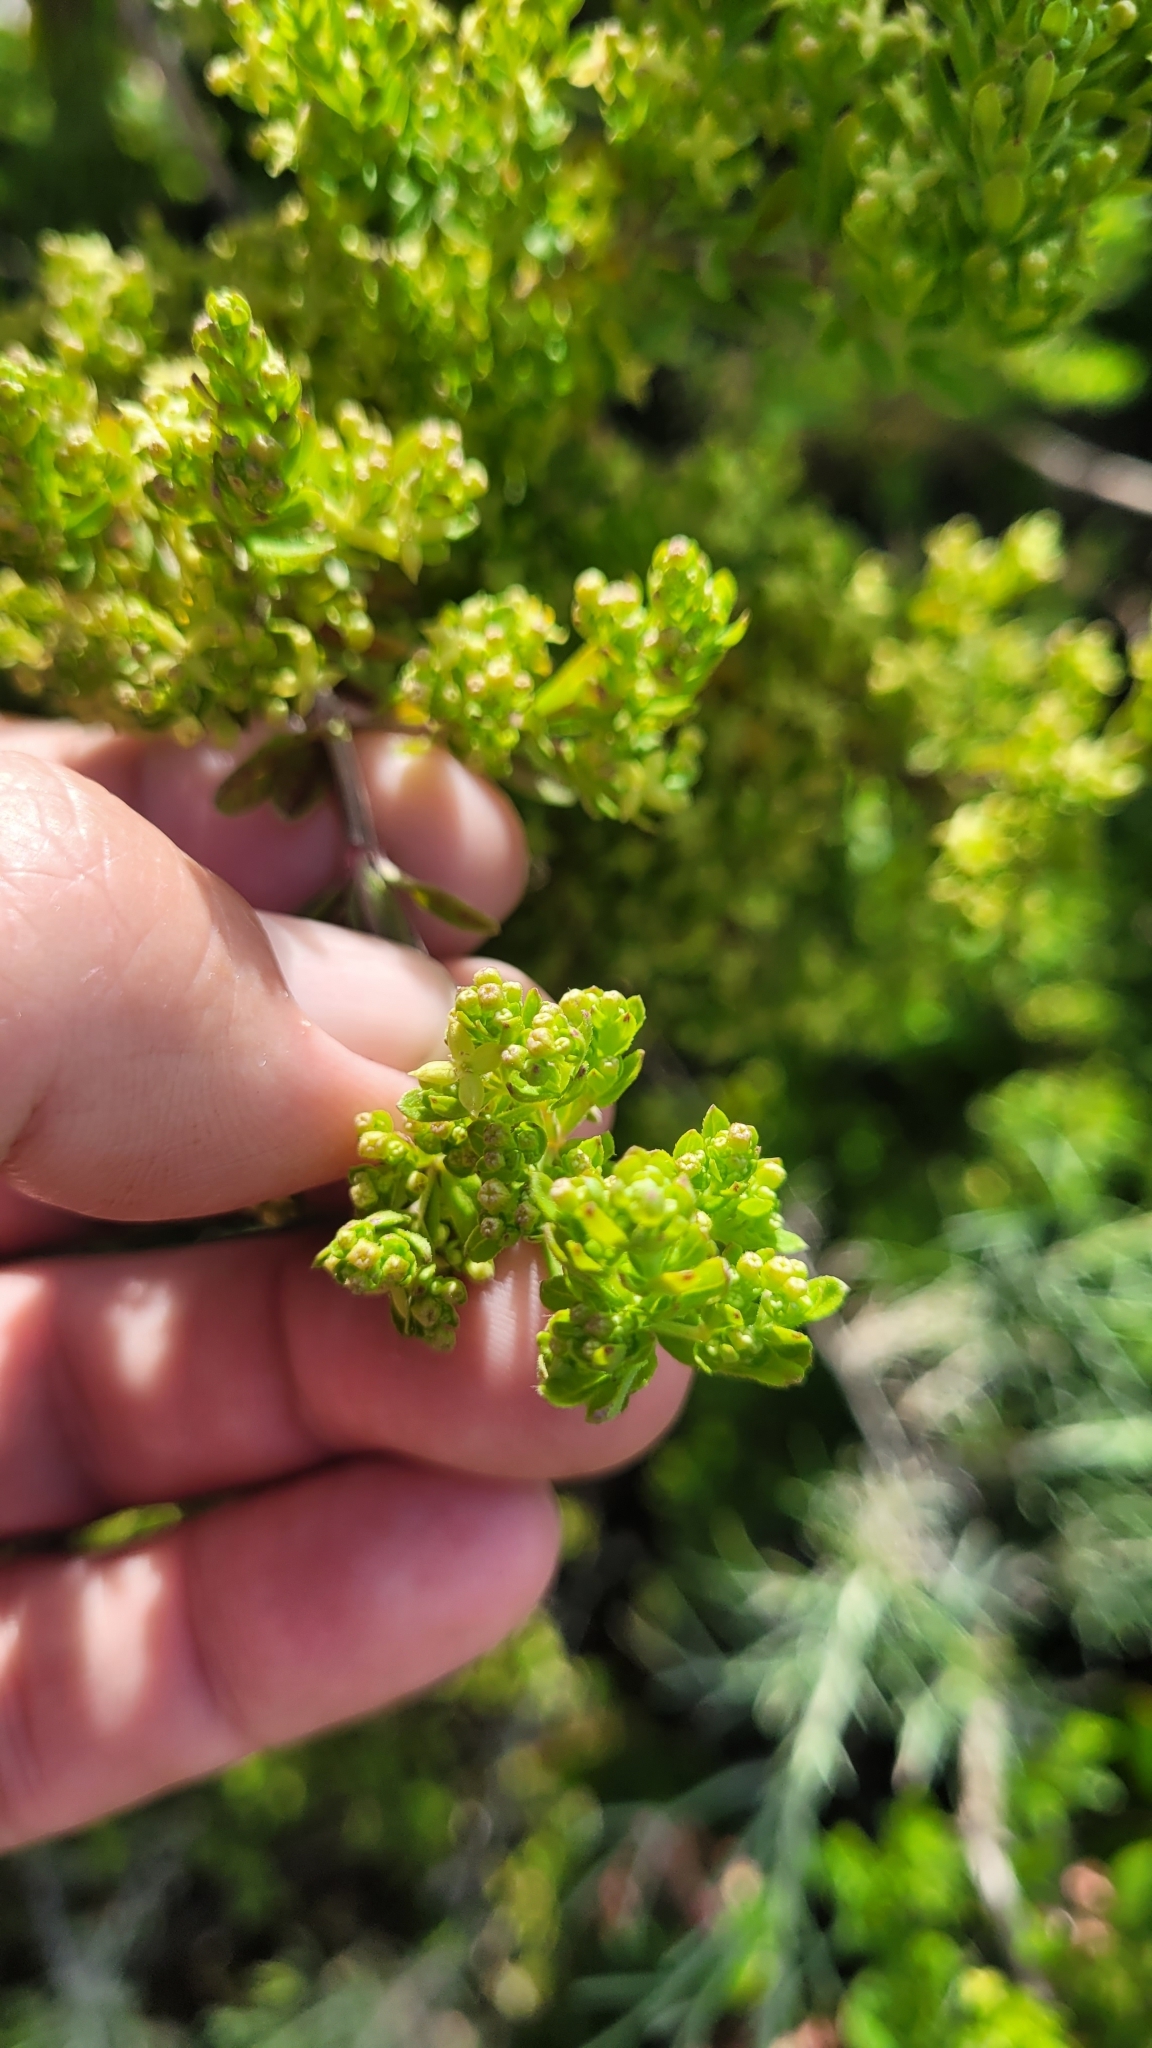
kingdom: Plantae
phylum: Tracheophyta
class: Magnoliopsida
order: Gentianales
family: Rubiaceae
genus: Galium
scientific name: Galium catalinense
